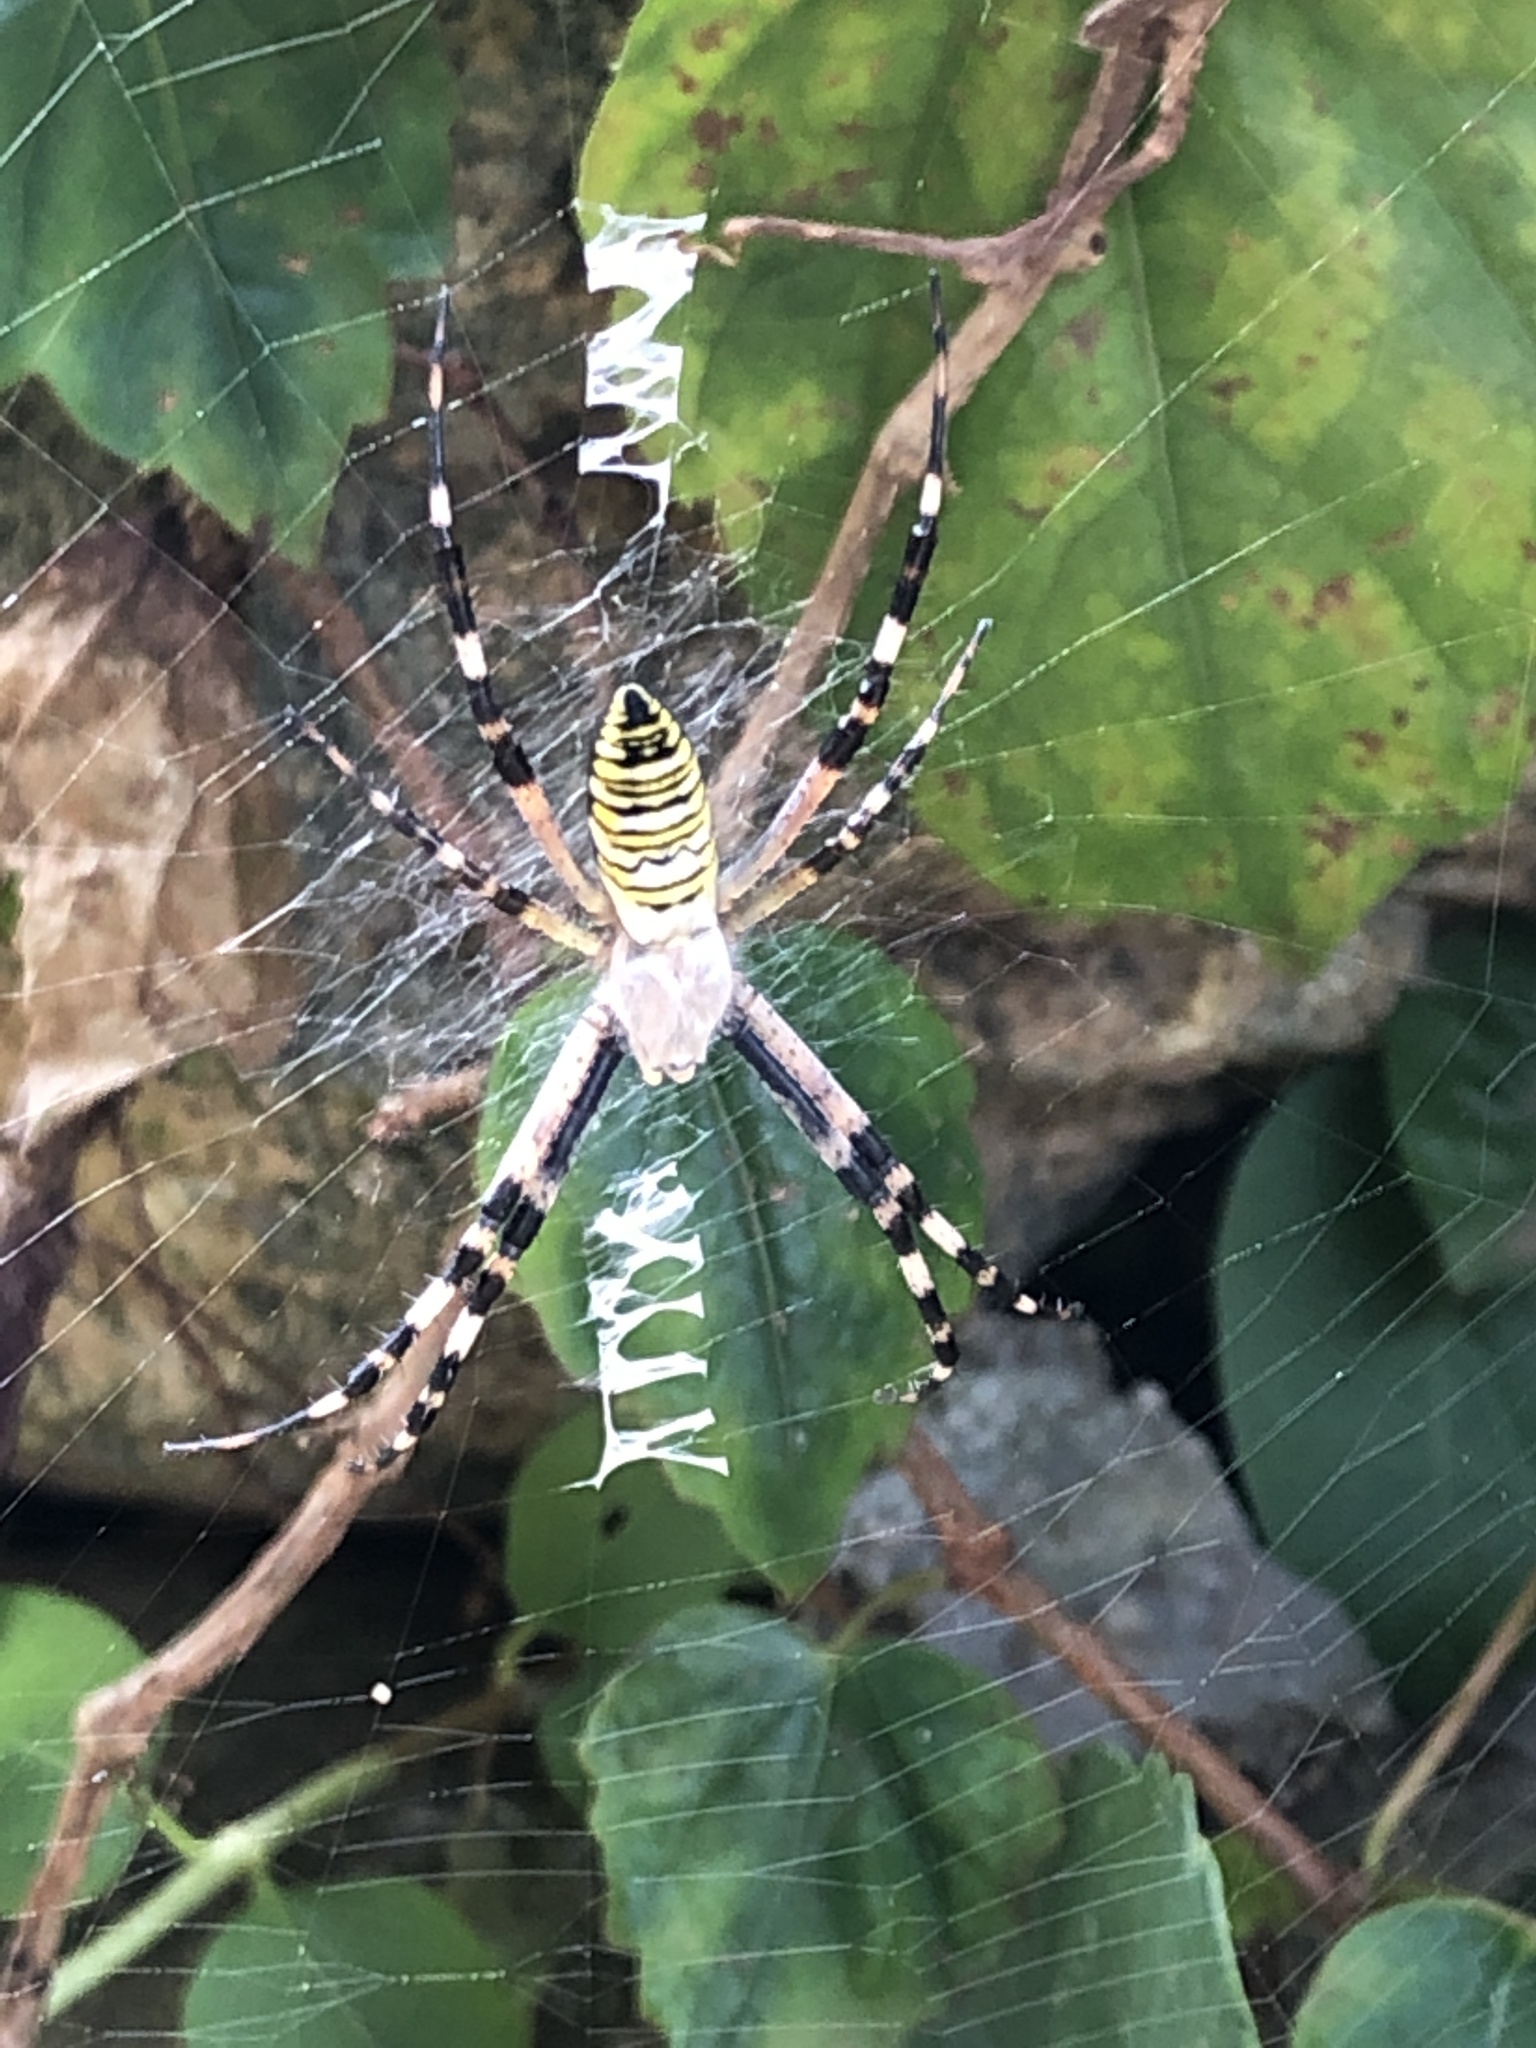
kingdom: Animalia
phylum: Arthropoda
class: Arachnida
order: Araneae
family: Araneidae
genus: Argiope
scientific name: Argiope bruennichi
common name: Wasp spider
